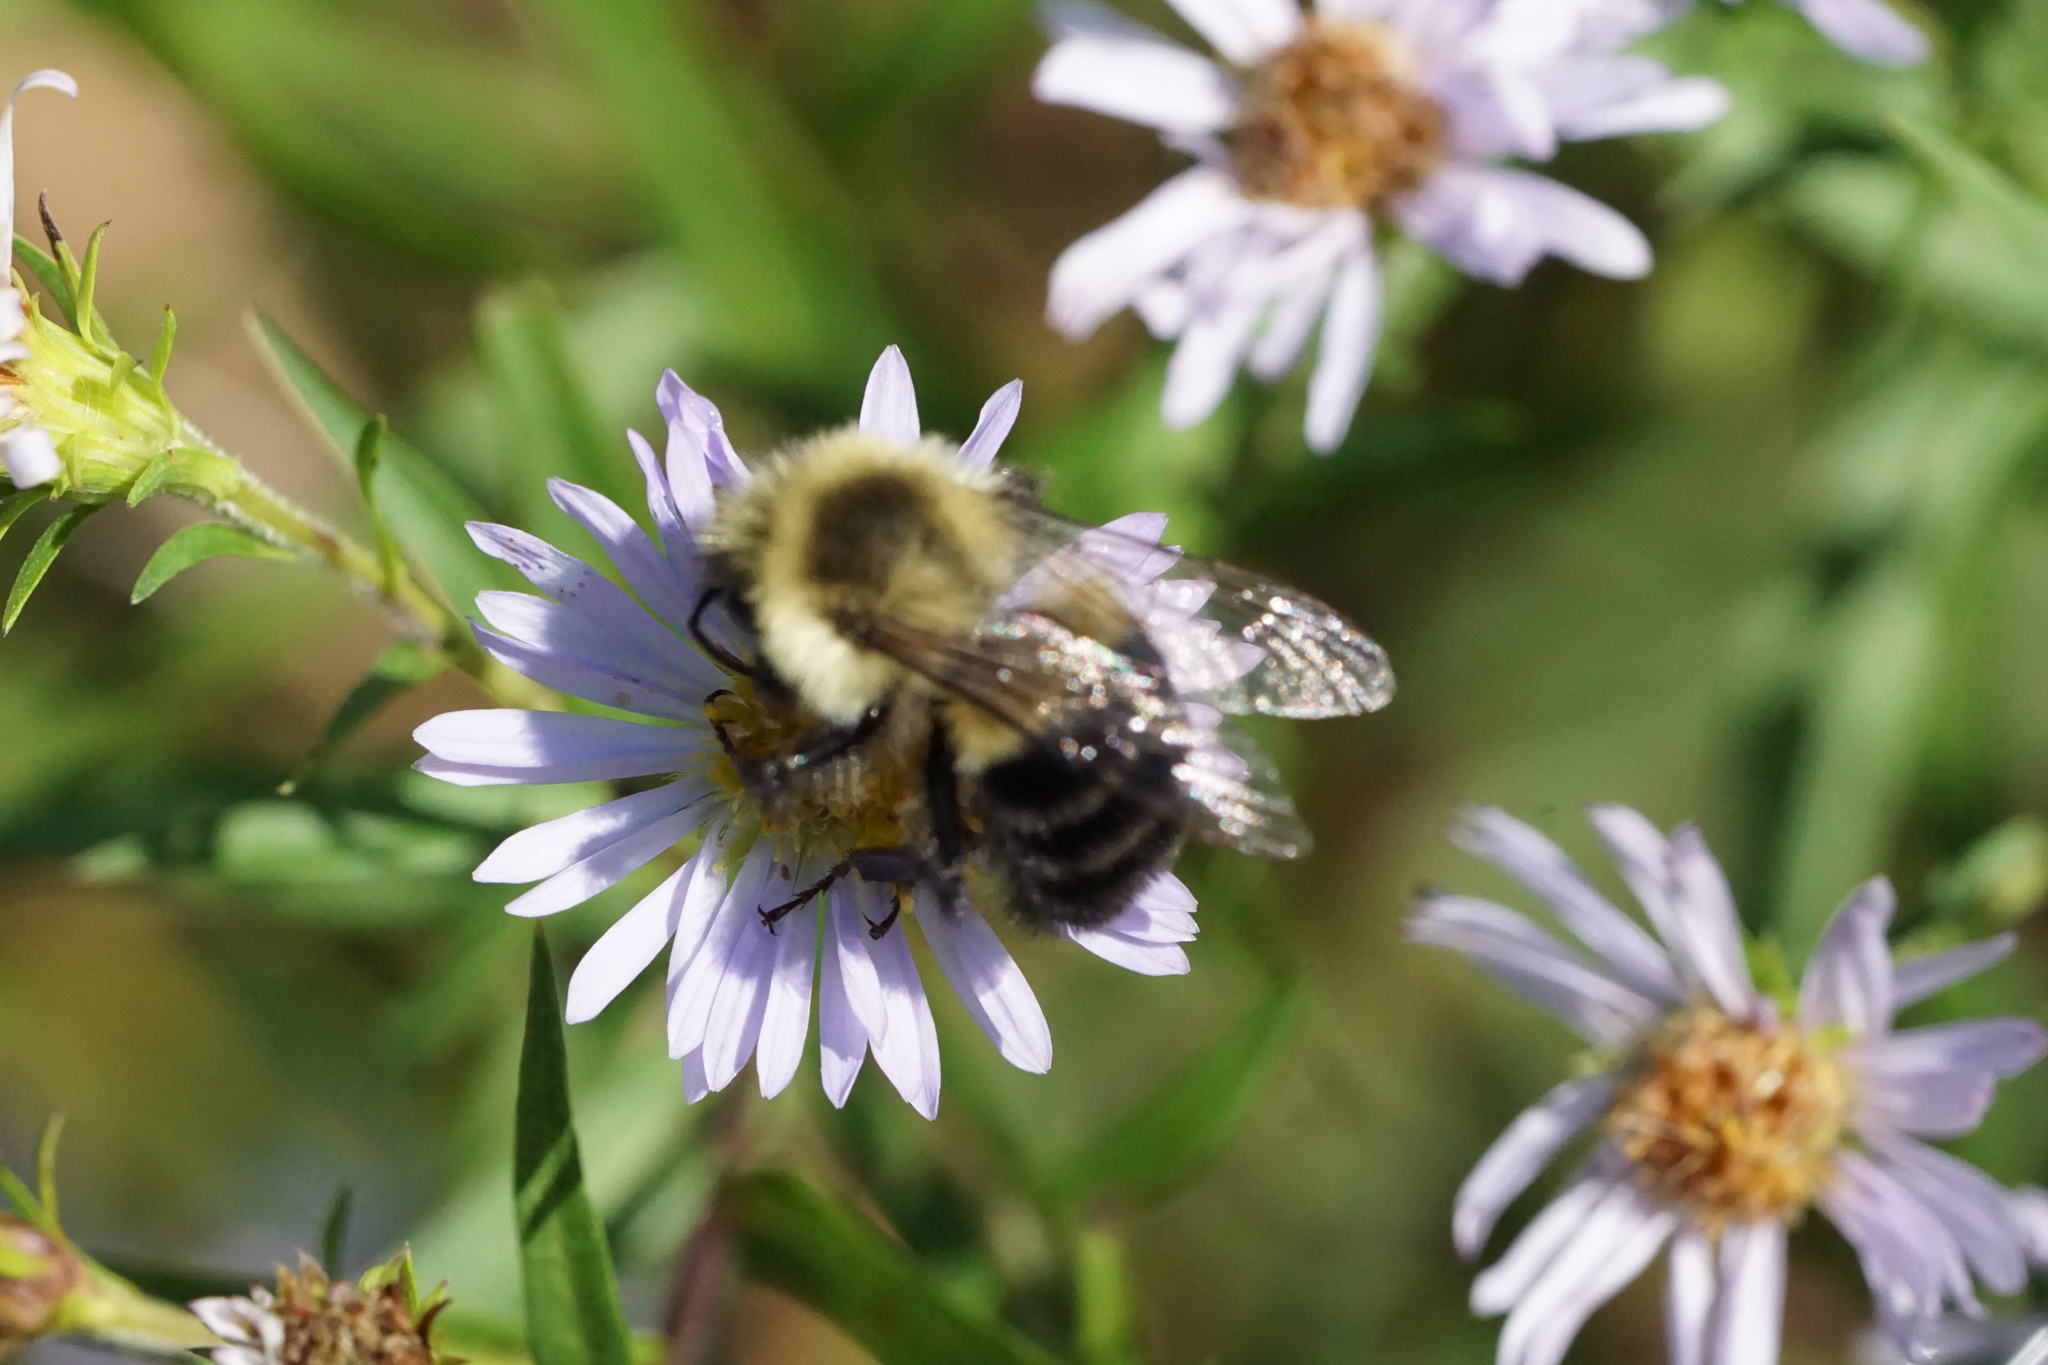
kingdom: Animalia
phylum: Arthropoda
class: Insecta
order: Hymenoptera
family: Apidae
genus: Bombus
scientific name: Bombus impatiens
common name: Common eastern bumble bee
